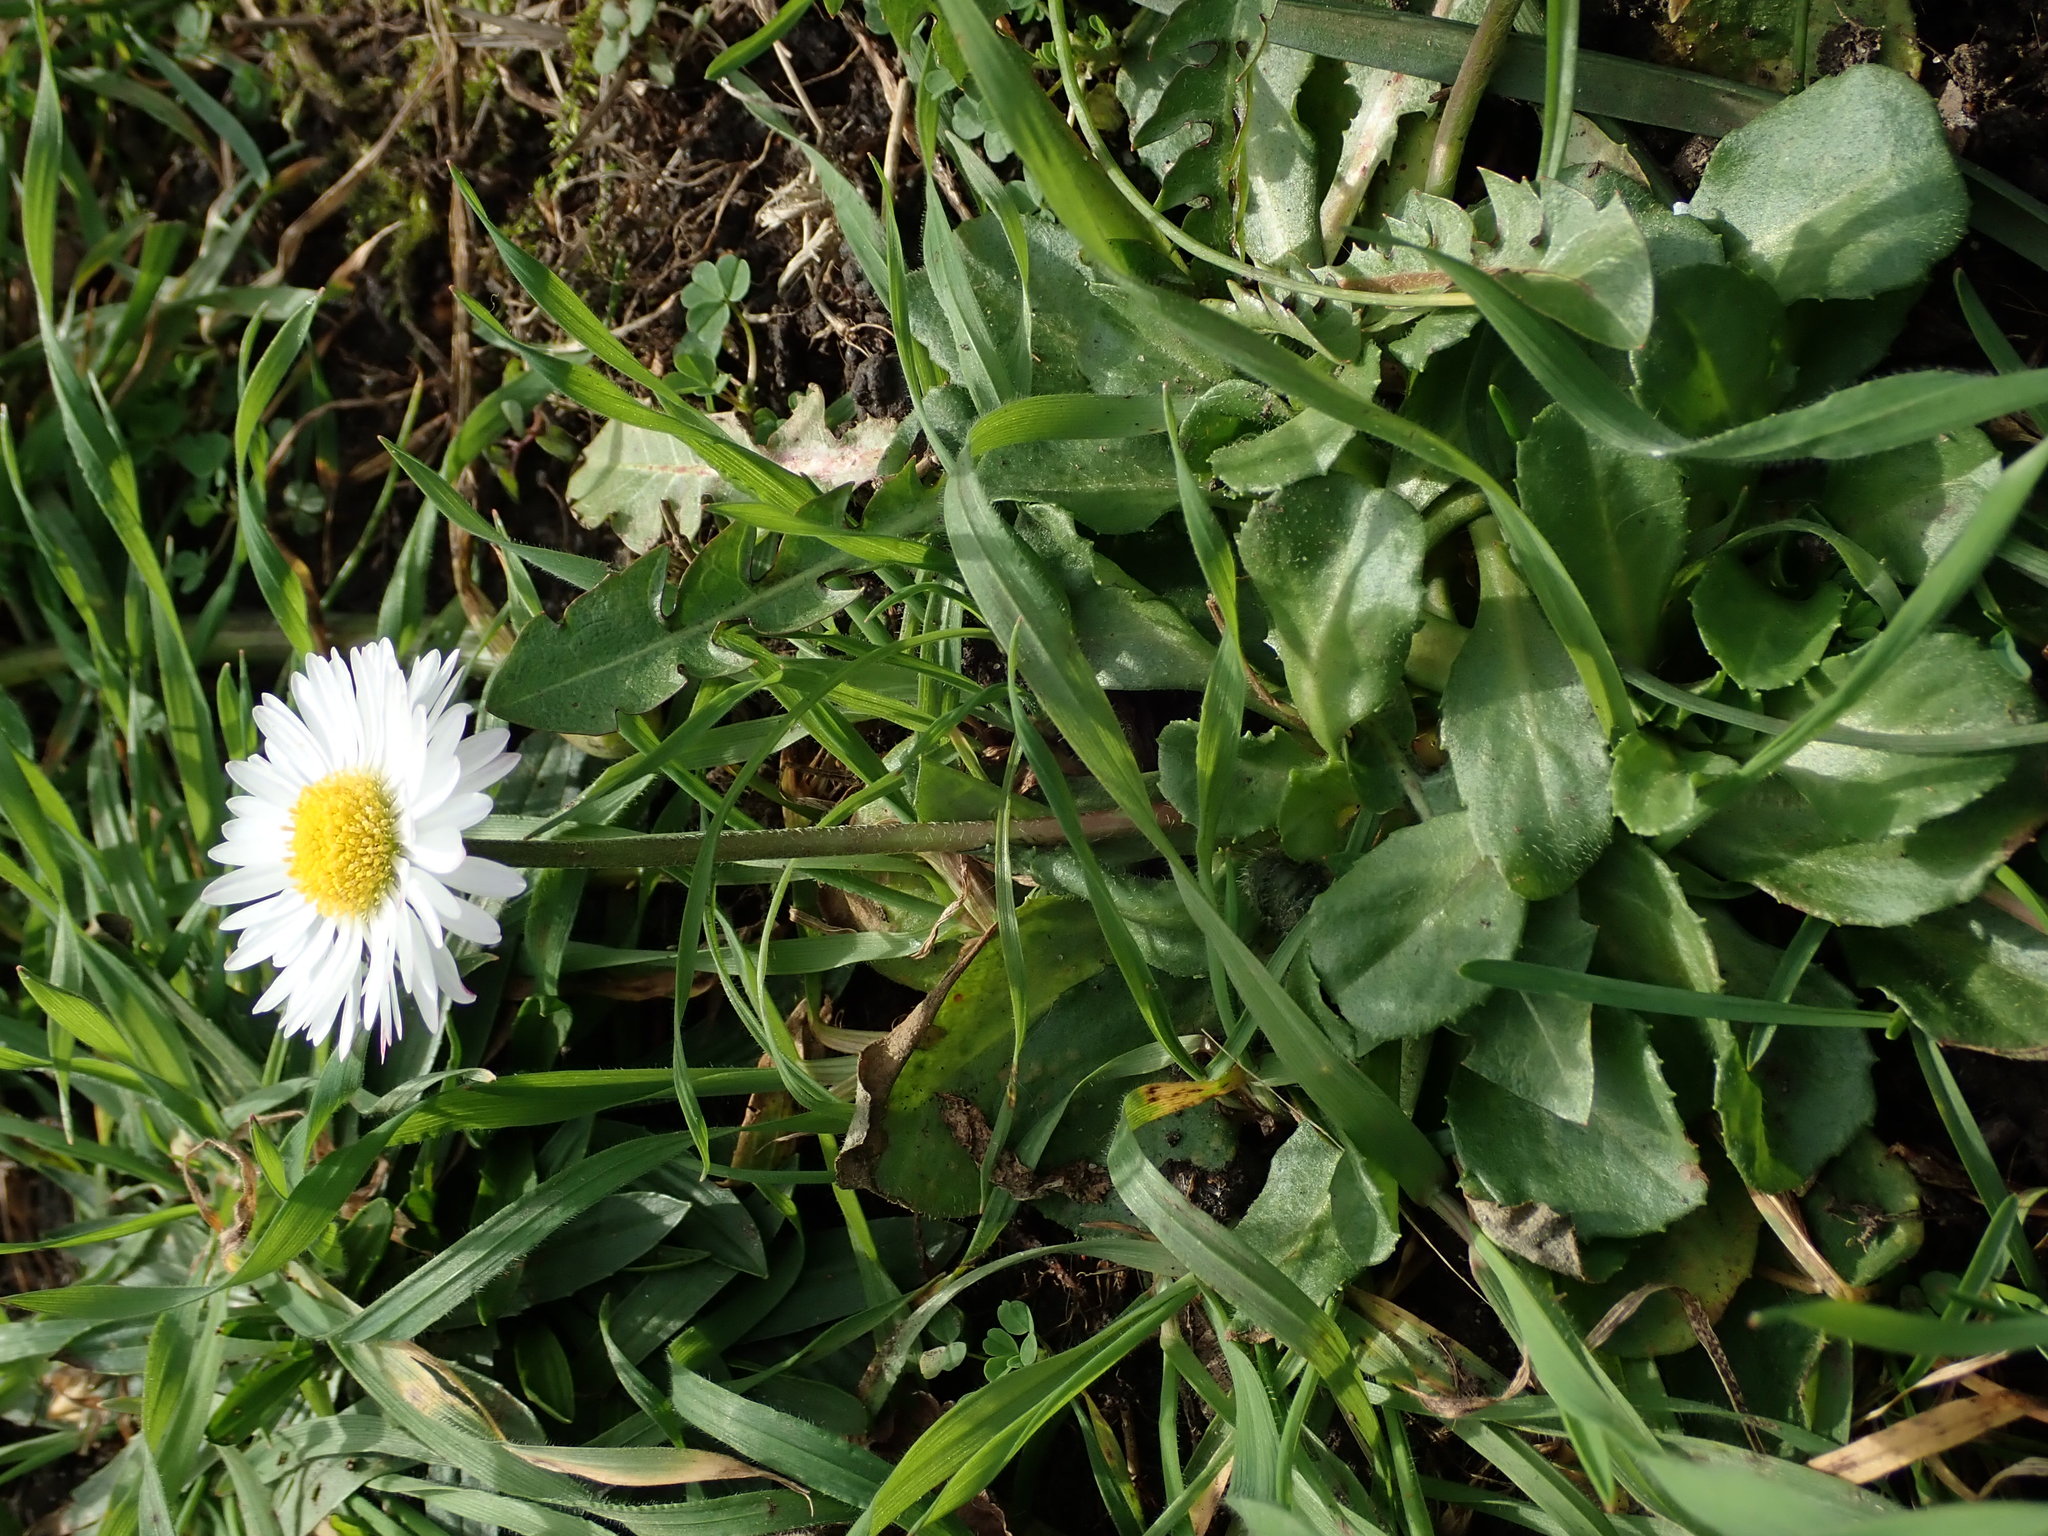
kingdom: Plantae
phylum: Tracheophyta
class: Magnoliopsida
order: Asterales
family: Asteraceae
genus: Bellis
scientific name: Bellis perennis
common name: Lawndaisy
